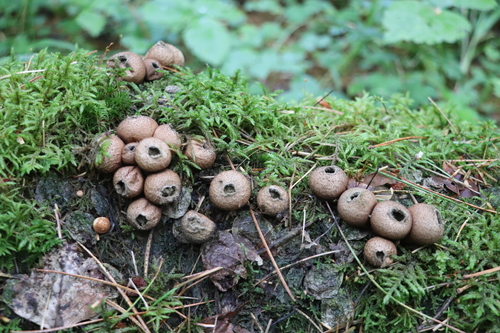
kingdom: Fungi
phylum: Basidiomycota
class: Agaricomycetes
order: Agaricales
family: Lycoperdaceae
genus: Apioperdon
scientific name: Apioperdon pyriforme
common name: Pear-shaped puffball
